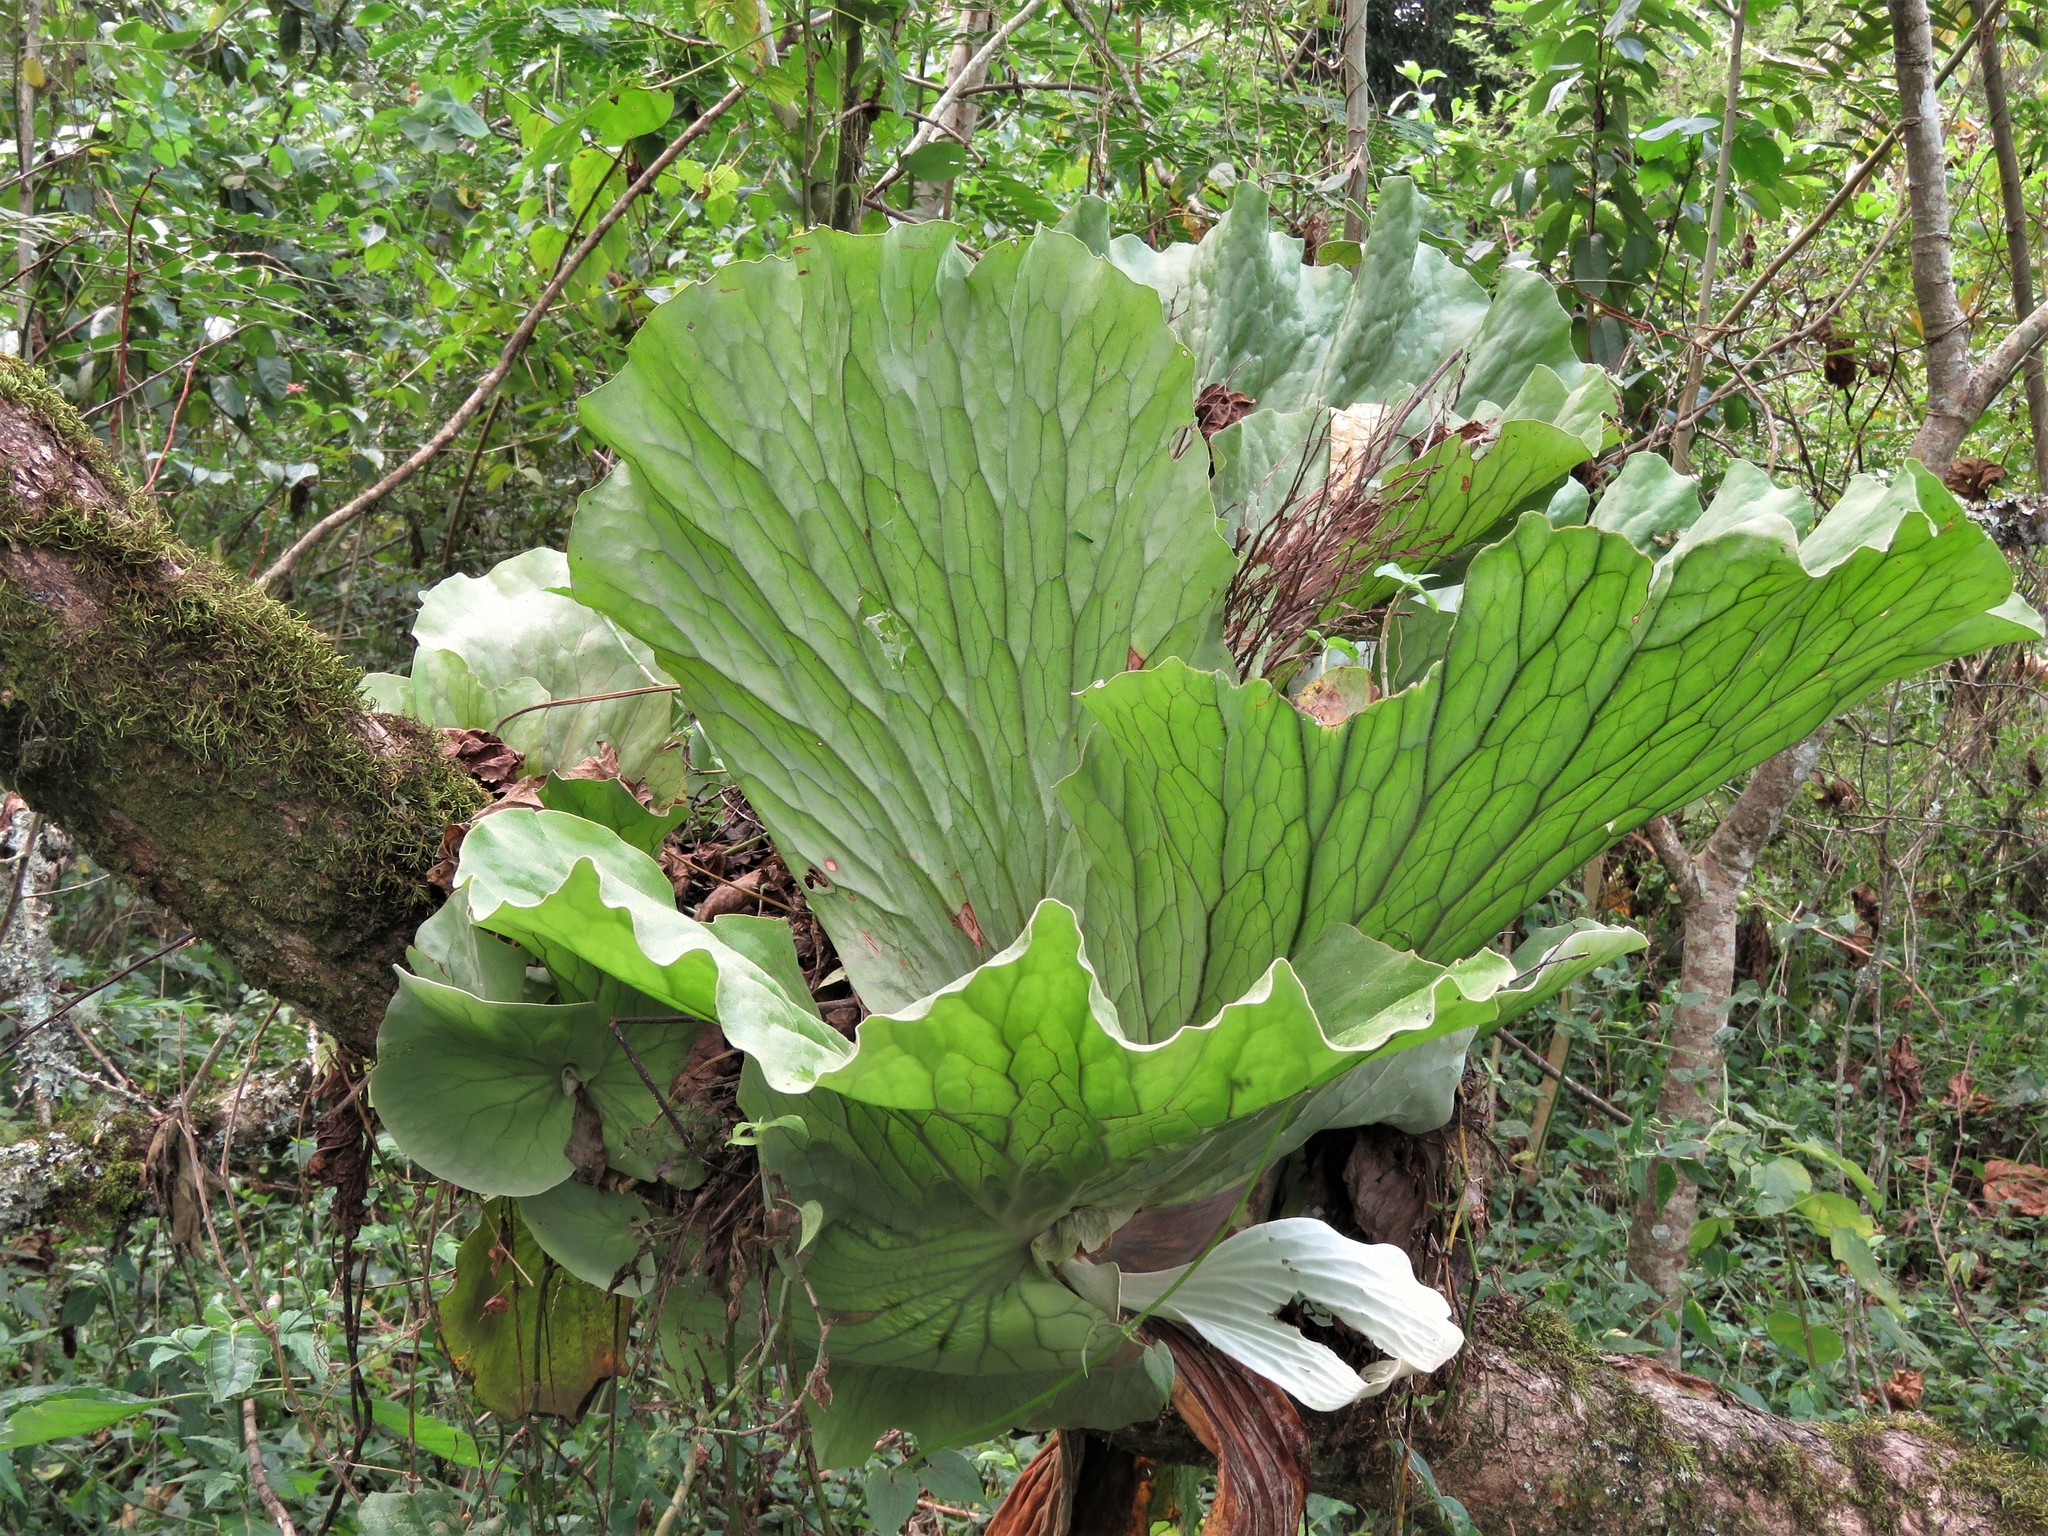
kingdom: Plantae
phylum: Tracheophyta
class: Polypodiopsida
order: Polypodiales
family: Polypodiaceae
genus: Platycerium
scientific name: Platycerium elephantotis
